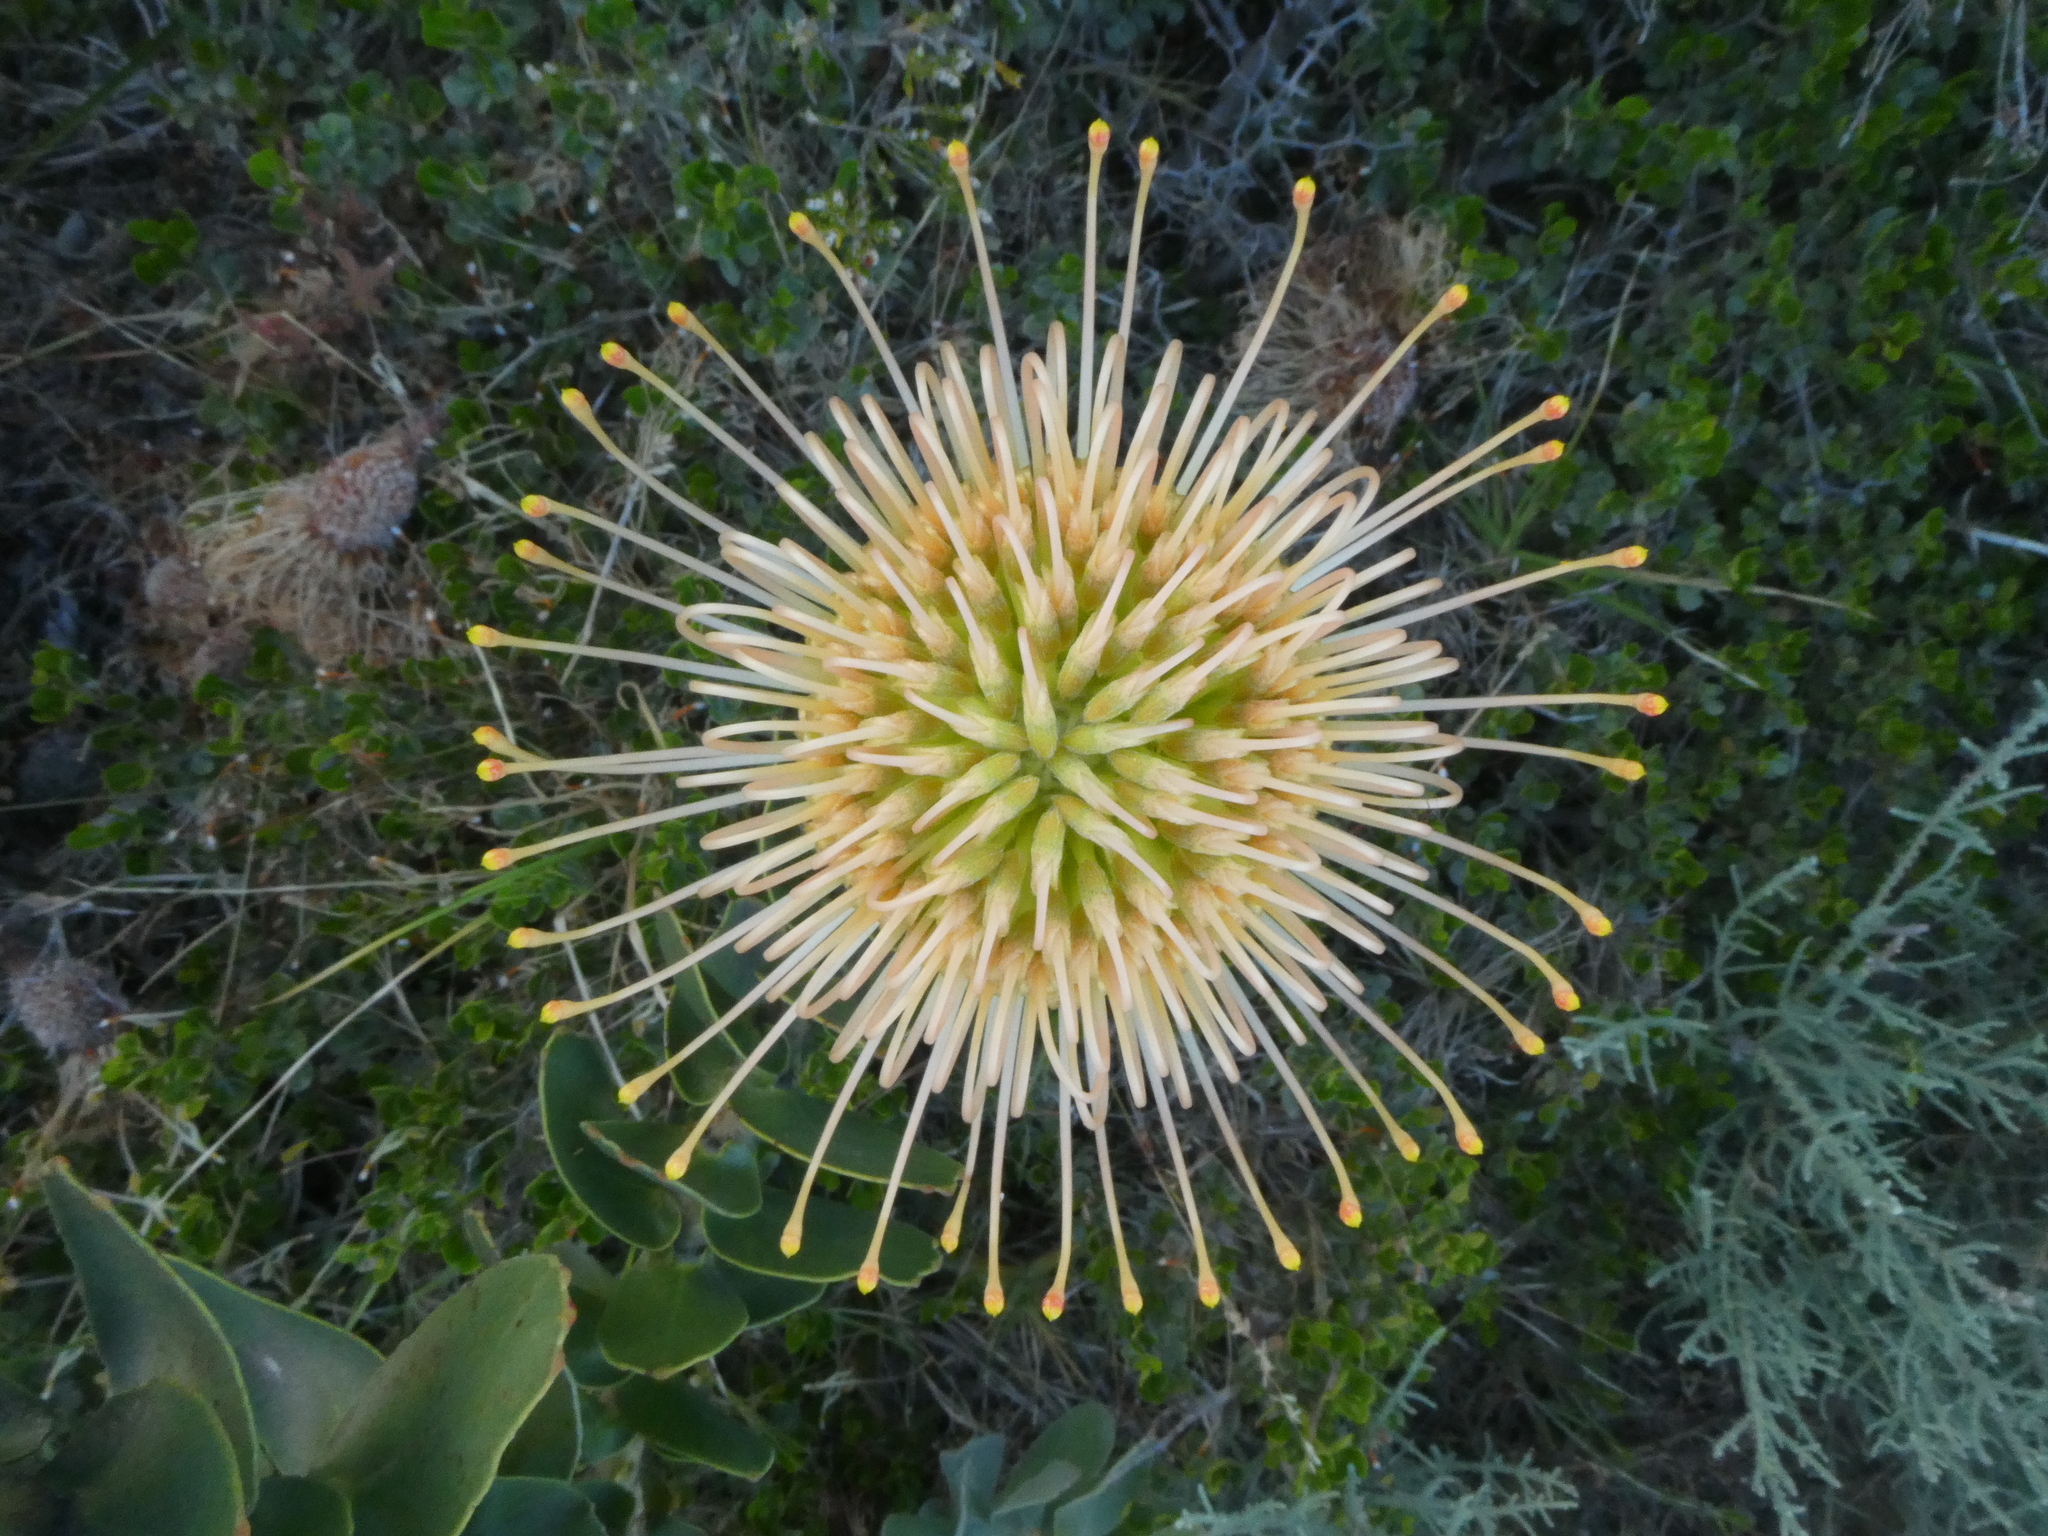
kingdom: Plantae
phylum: Tracheophyta
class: Magnoliopsida
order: Proteales
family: Proteaceae
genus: Leucospermum
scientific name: Leucospermum cordifolium
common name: Red pincushion-protea
